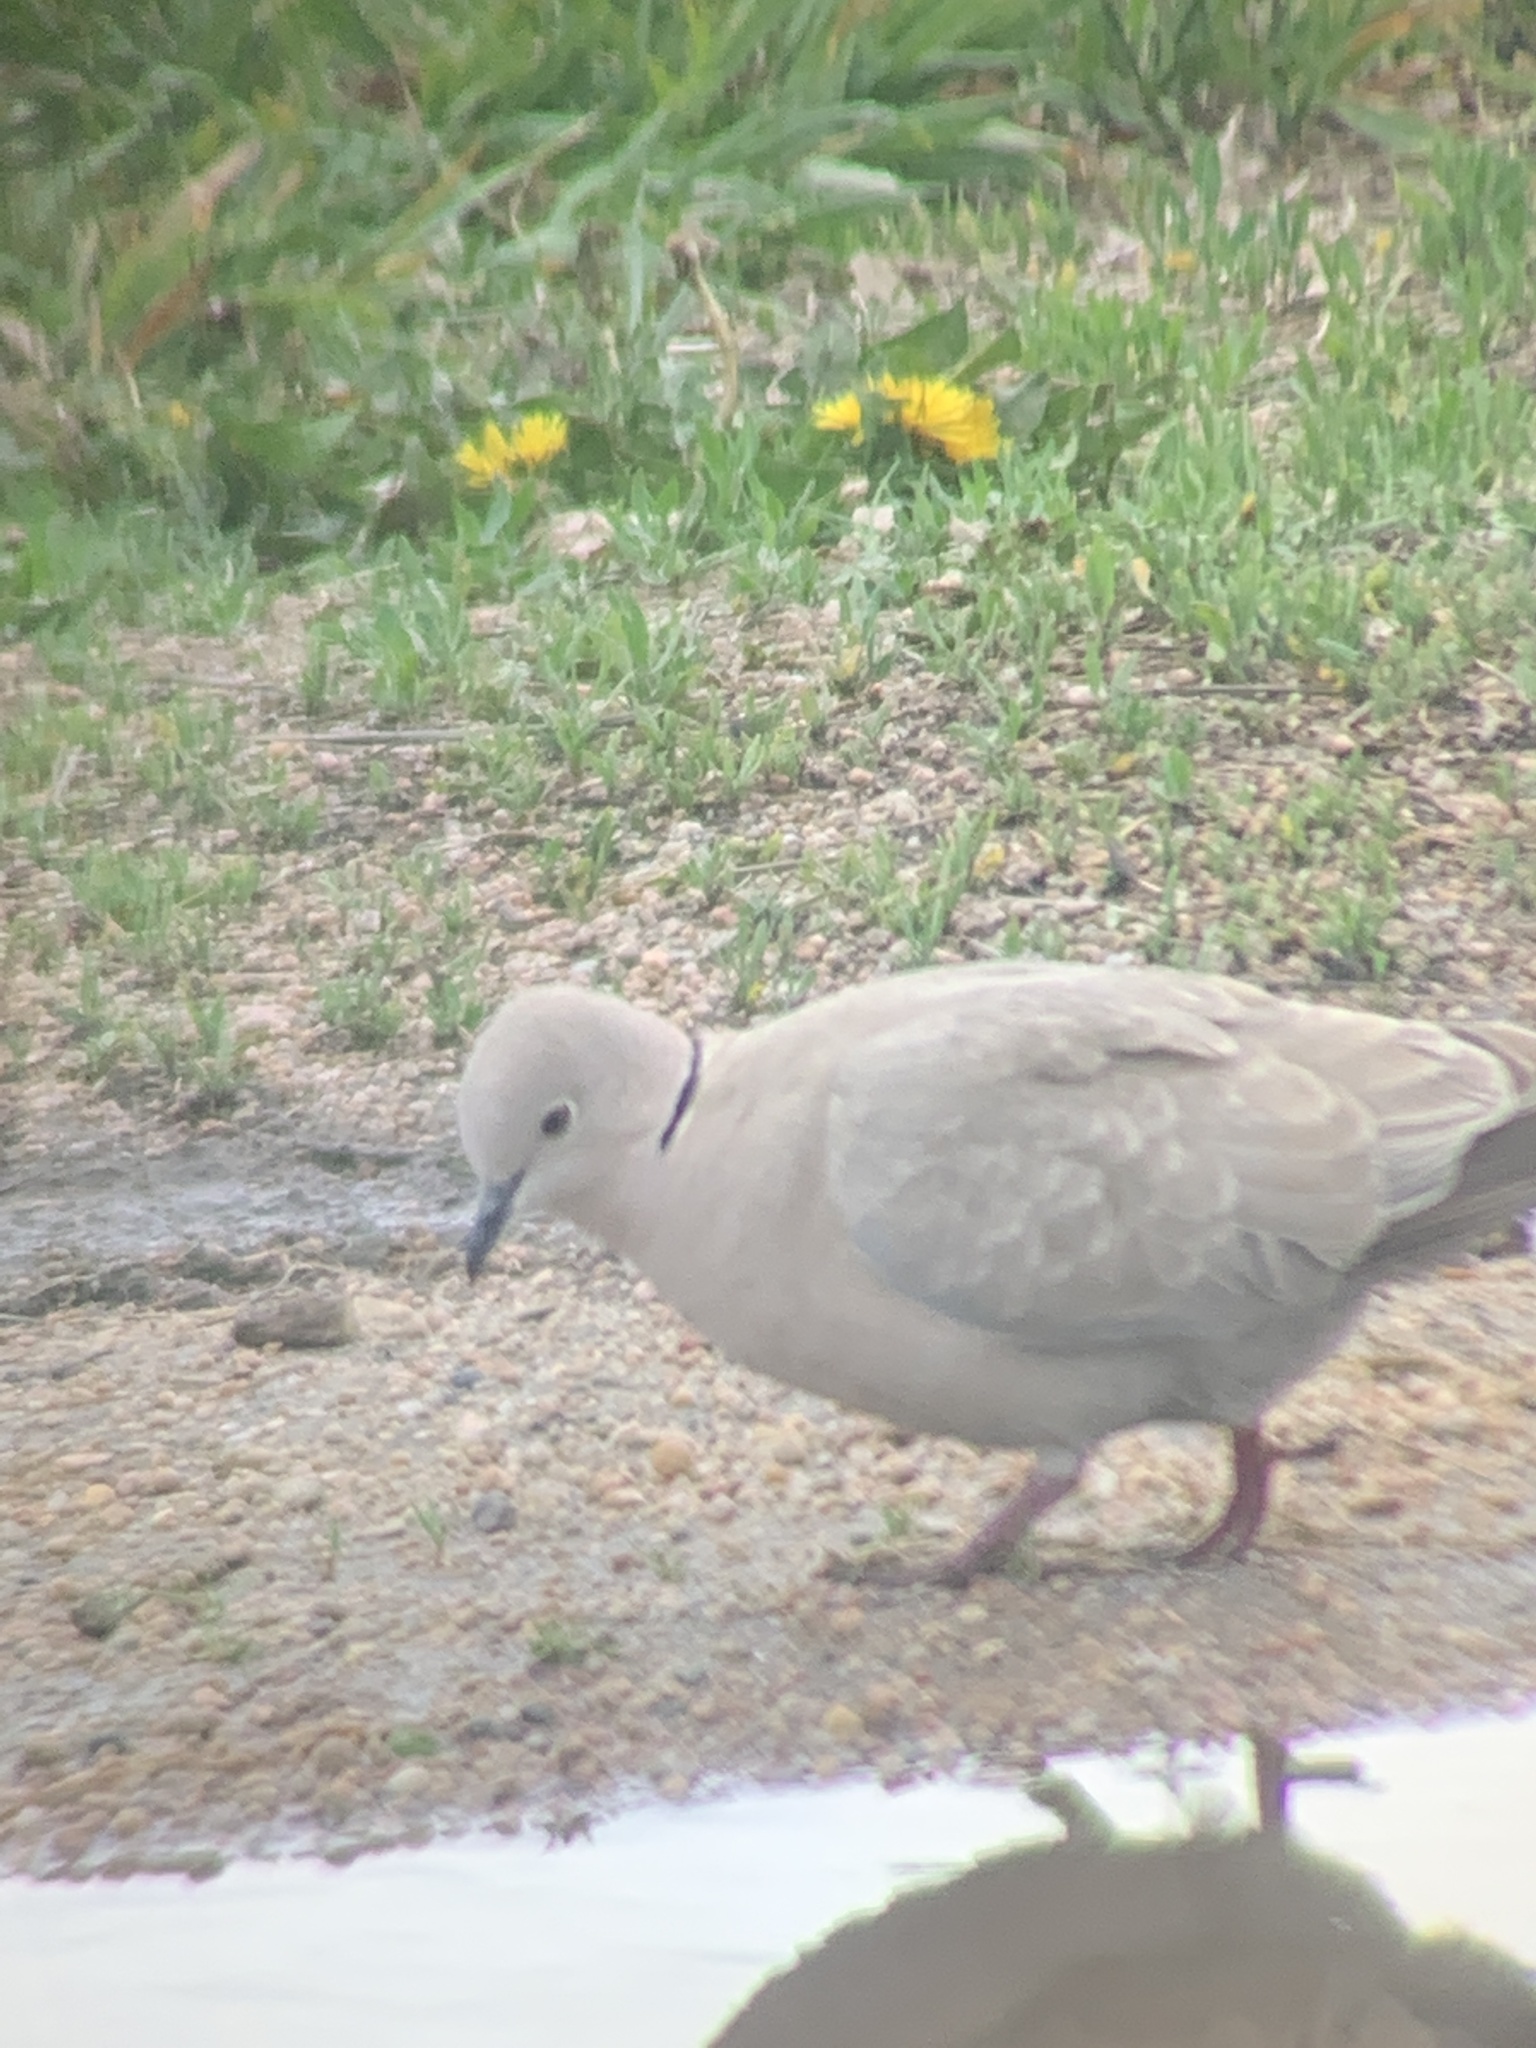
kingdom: Animalia
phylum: Chordata
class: Aves
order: Columbiformes
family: Columbidae
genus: Streptopelia
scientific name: Streptopelia decaocto
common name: Eurasian collared dove
